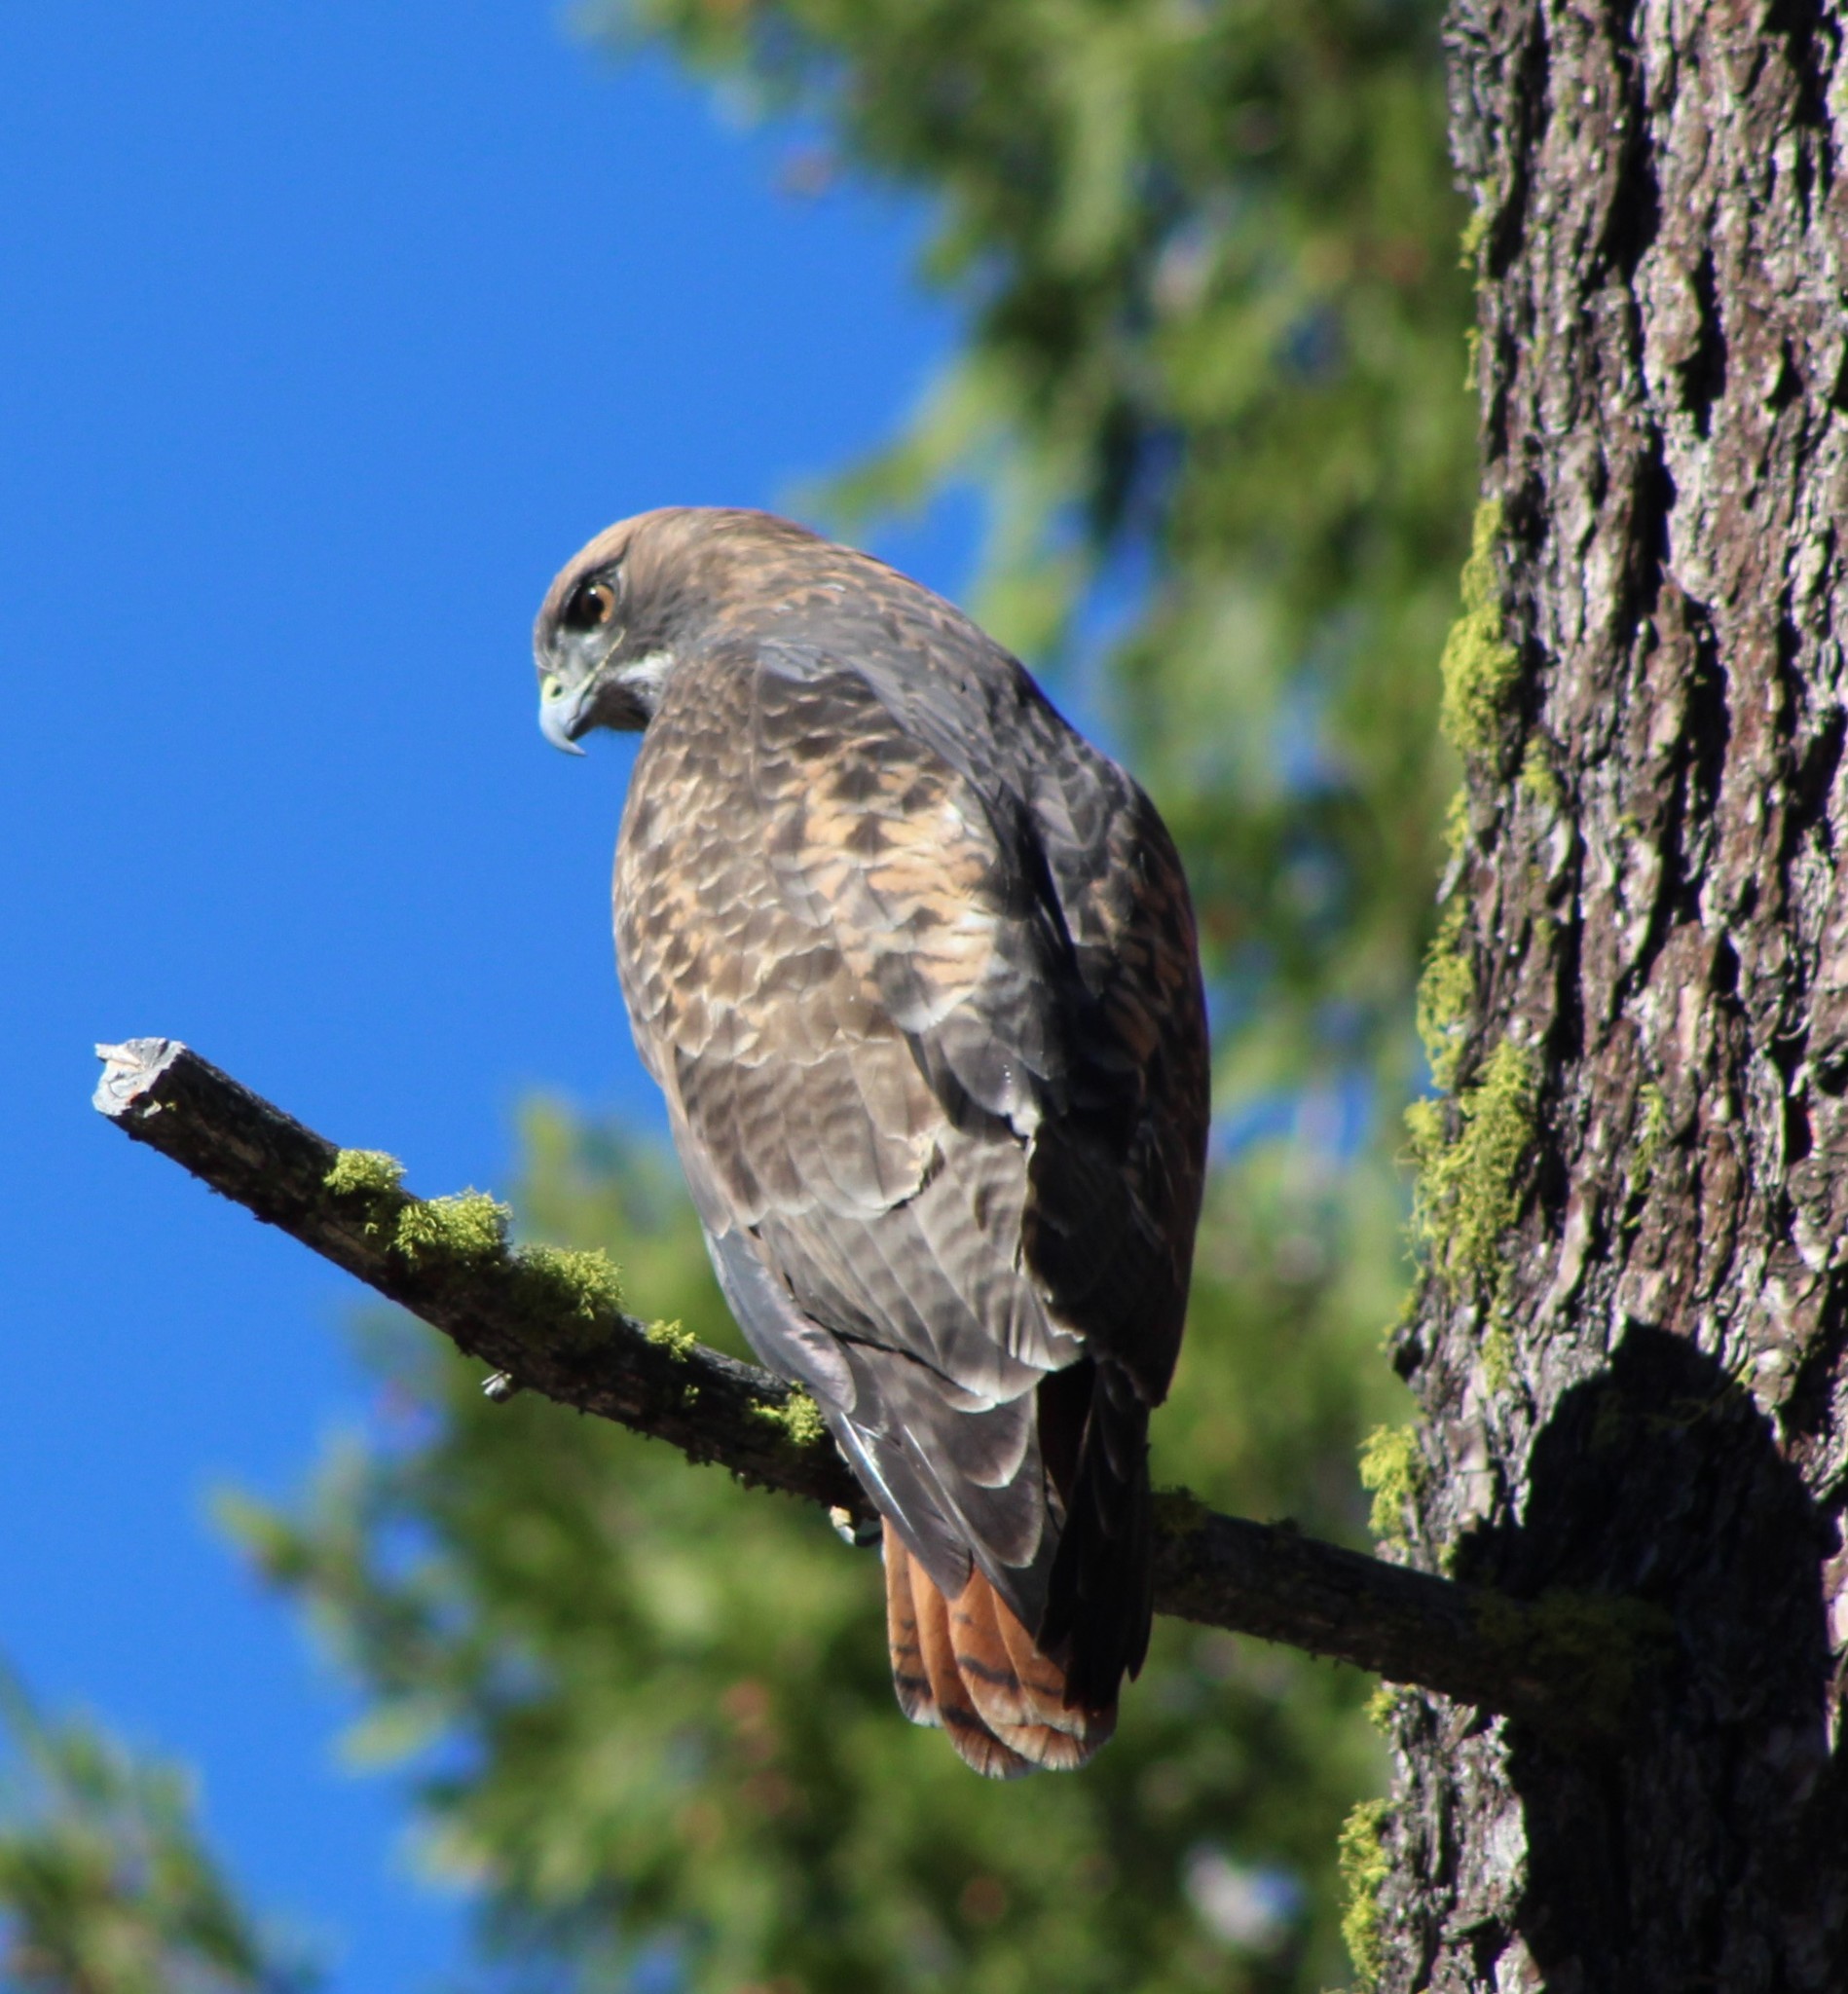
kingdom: Animalia
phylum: Chordata
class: Aves
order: Accipitriformes
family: Accipitridae
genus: Buteo
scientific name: Buteo jamaicensis
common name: Red-tailed hawk
